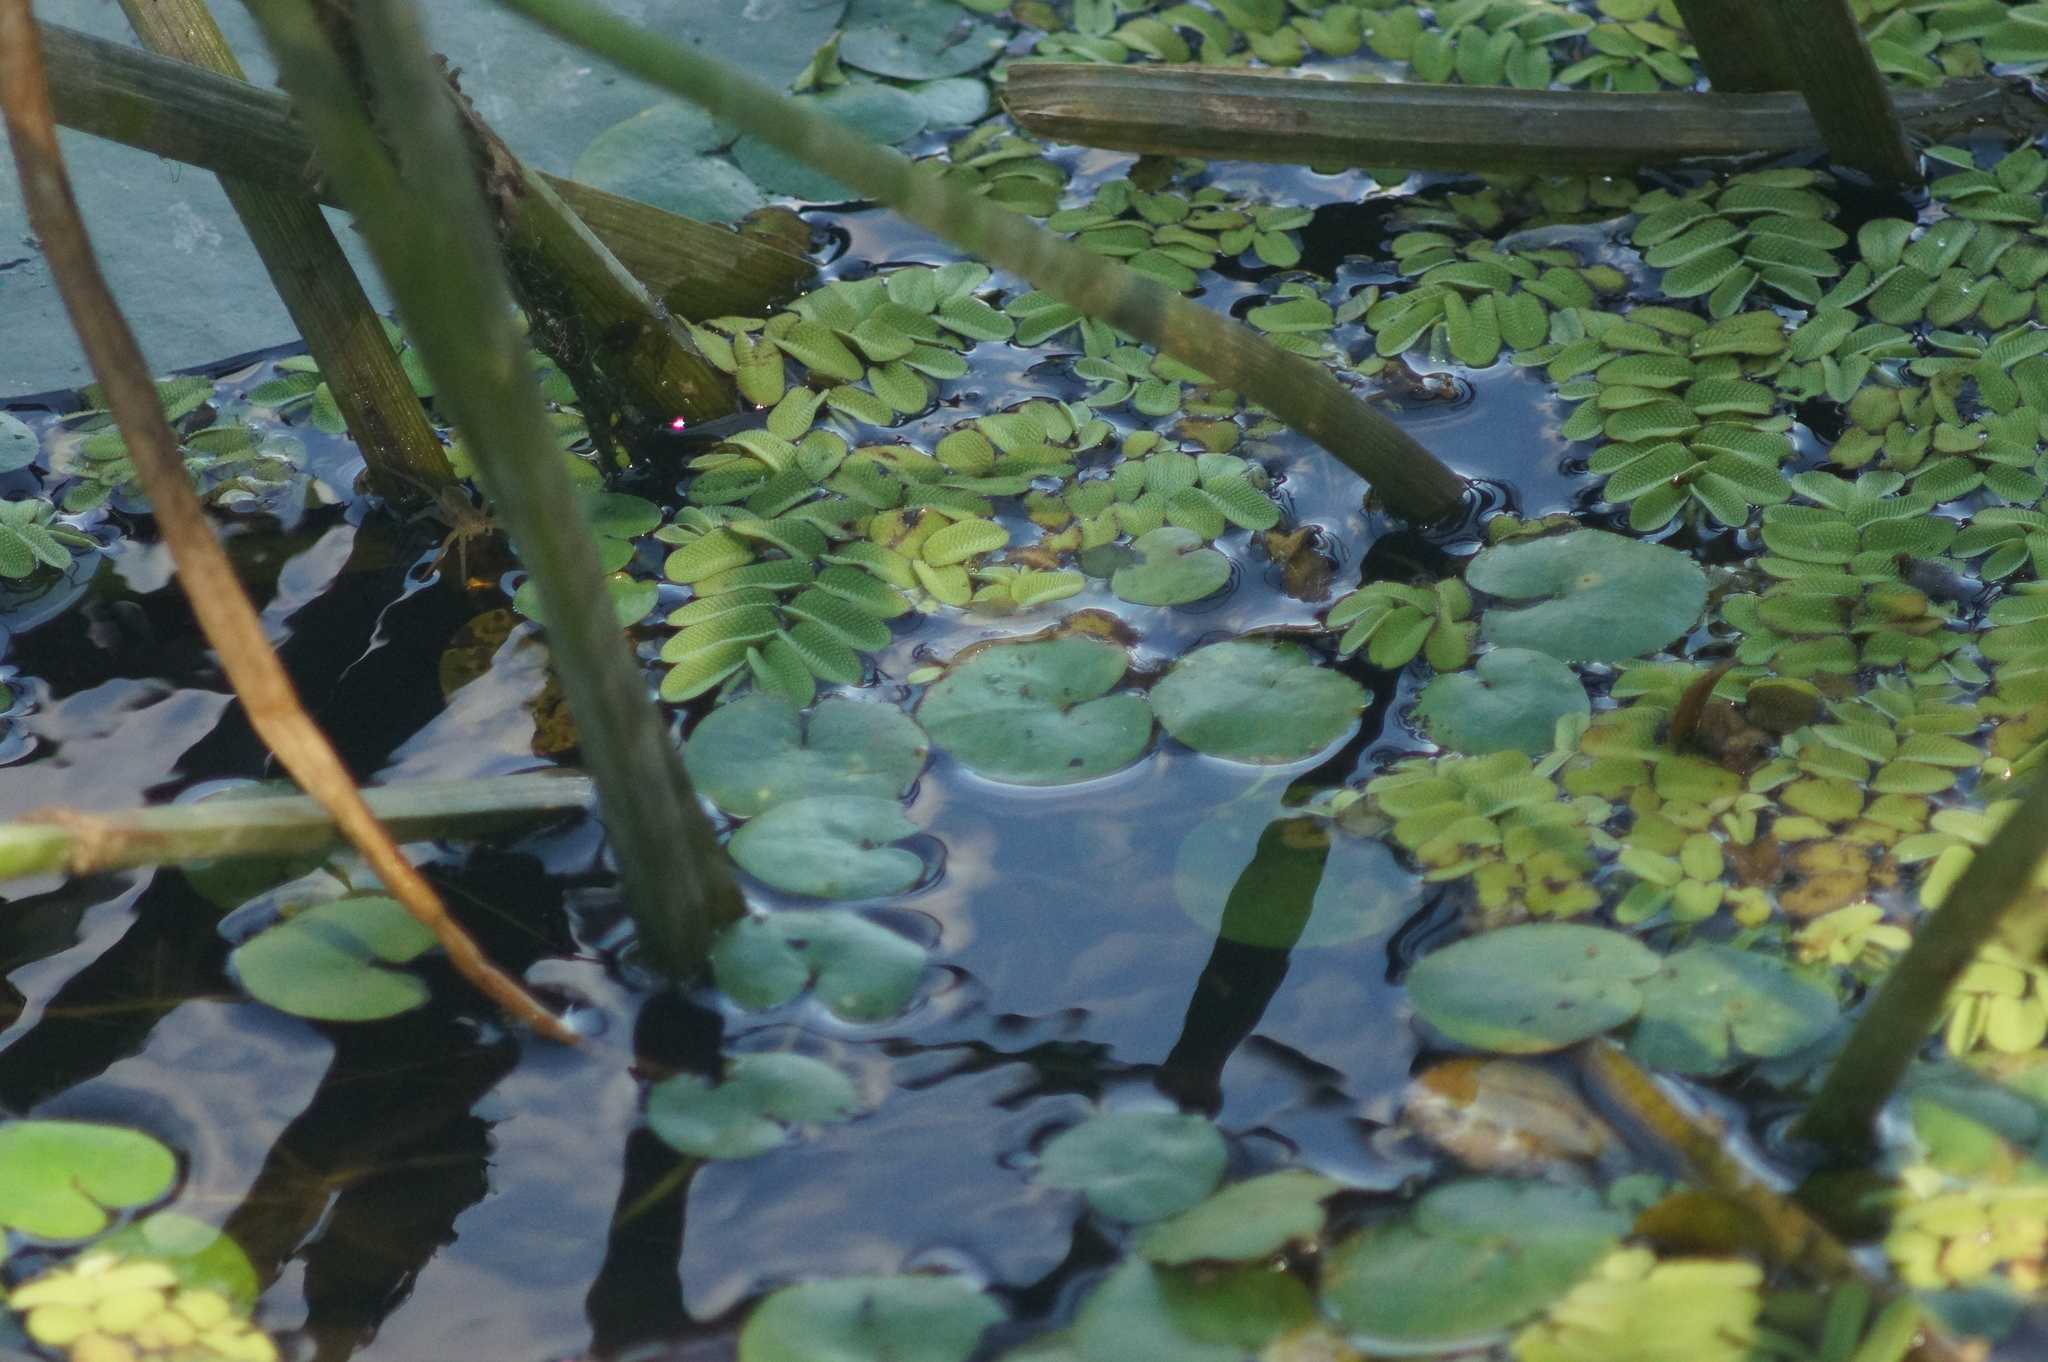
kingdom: Plantae
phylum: Tracheophyta
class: Liliopsida
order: Alismatales
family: Hydrocharitaceae
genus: Hydrocharis
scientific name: Hydrocharis morsus-ranae
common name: Frogbit
